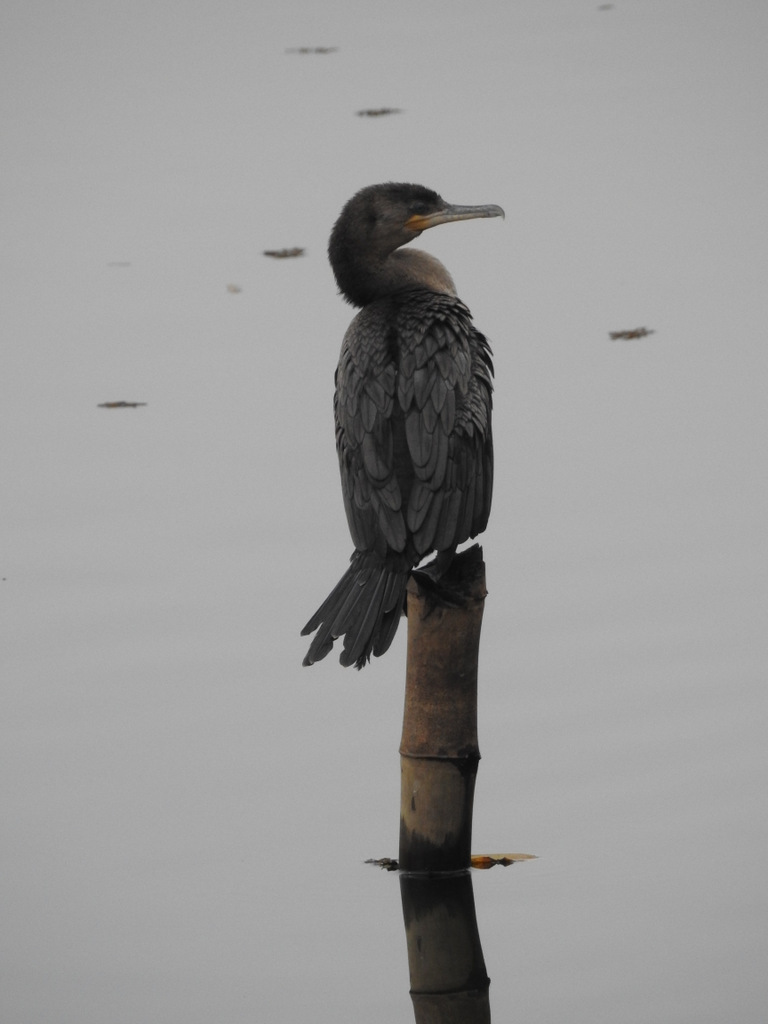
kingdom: Animalia
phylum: Chordata
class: Aves
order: Suliformes
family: Phalacrocoracidae
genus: Phalacrocorax
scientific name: Phalacrocorax brasilianus
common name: Neotropic cormorant
